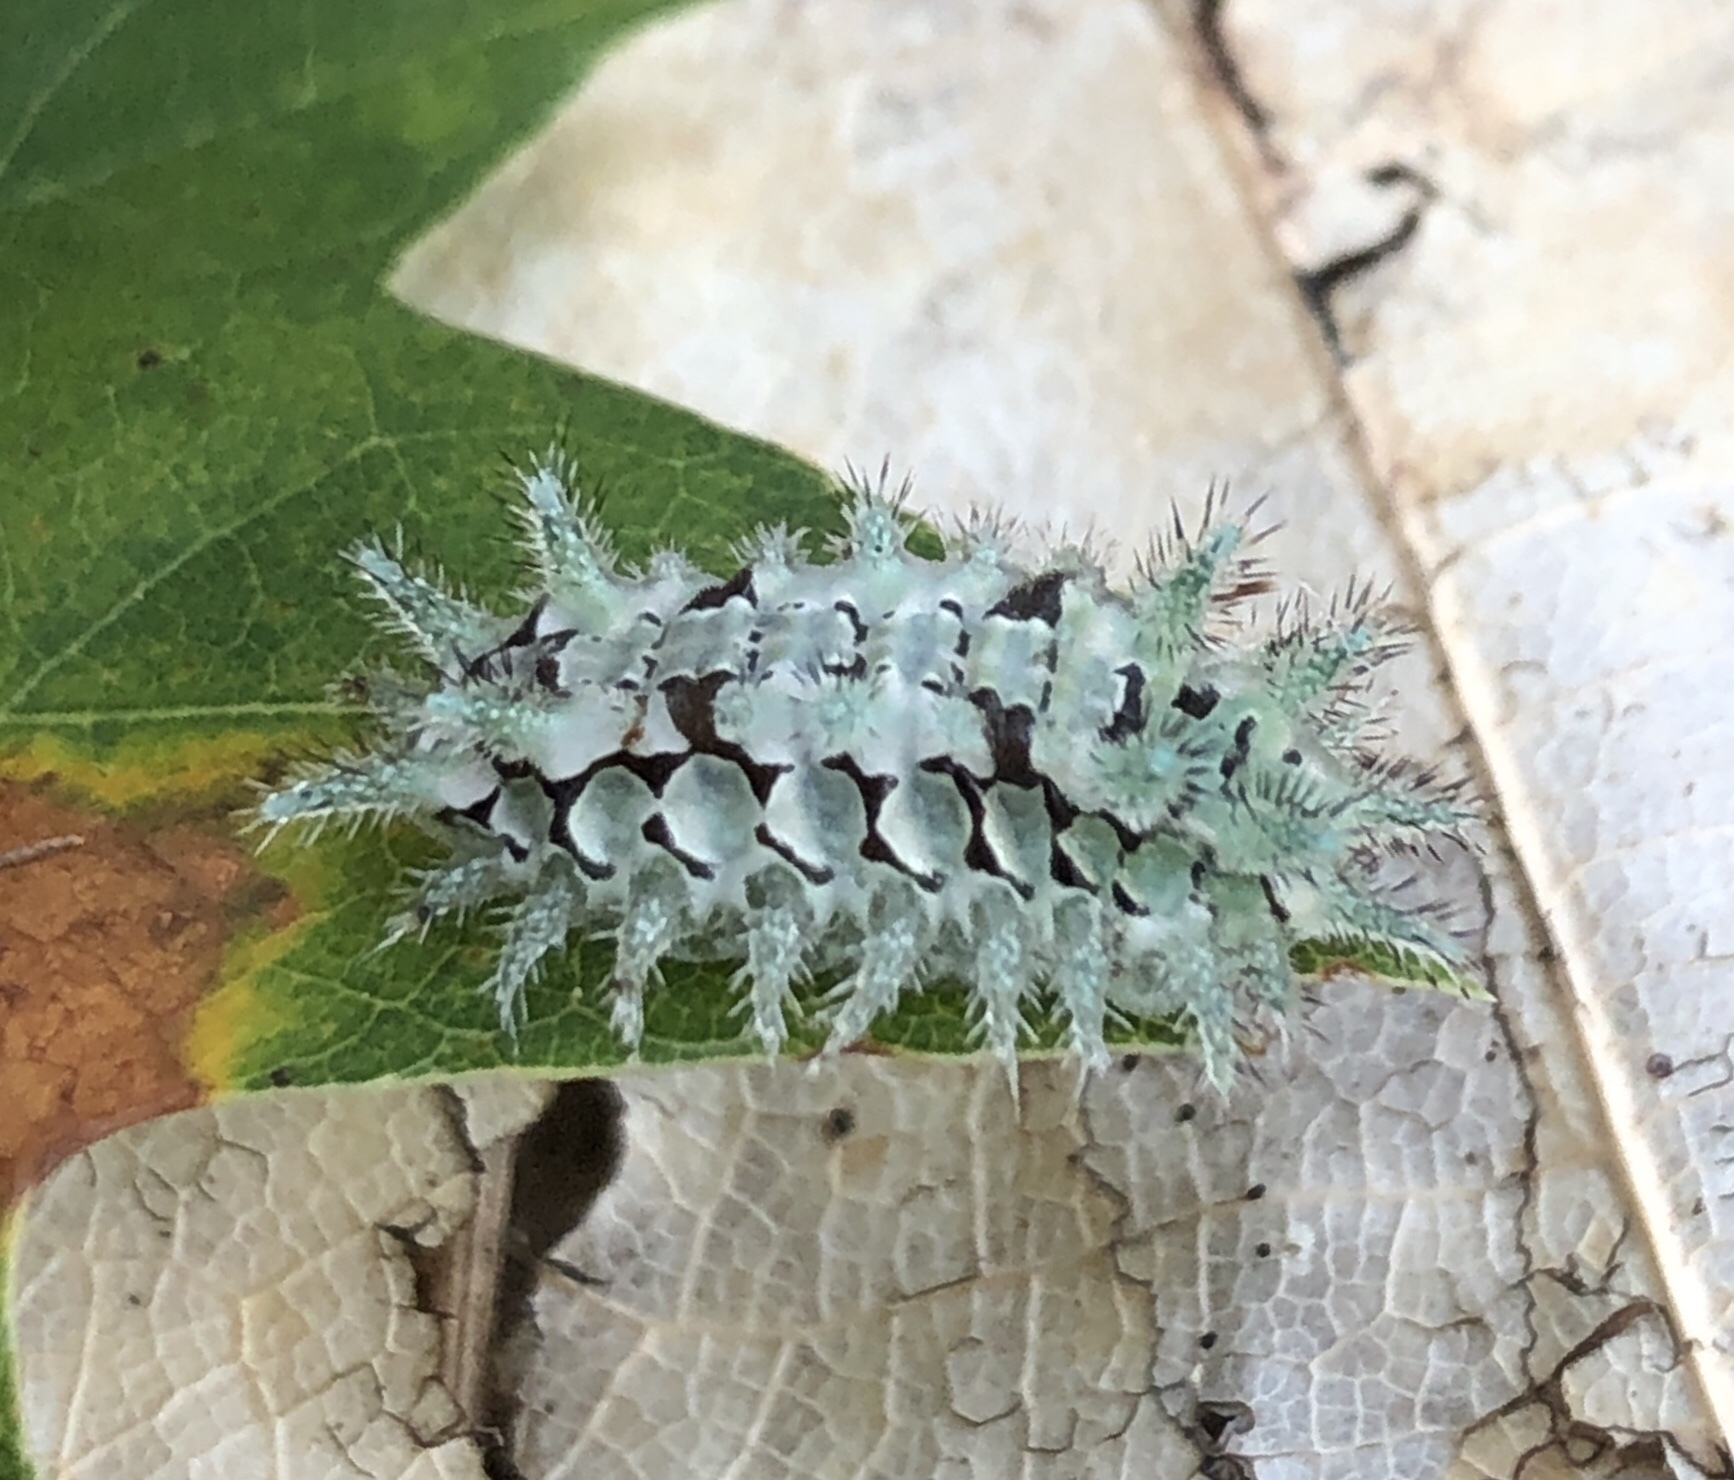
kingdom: Animalia
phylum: Arthropoda
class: Insecta
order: Lepidoptera
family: Limacodidae
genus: Euclea
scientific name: Euclea delphinii
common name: Spiny oak-slug moth
